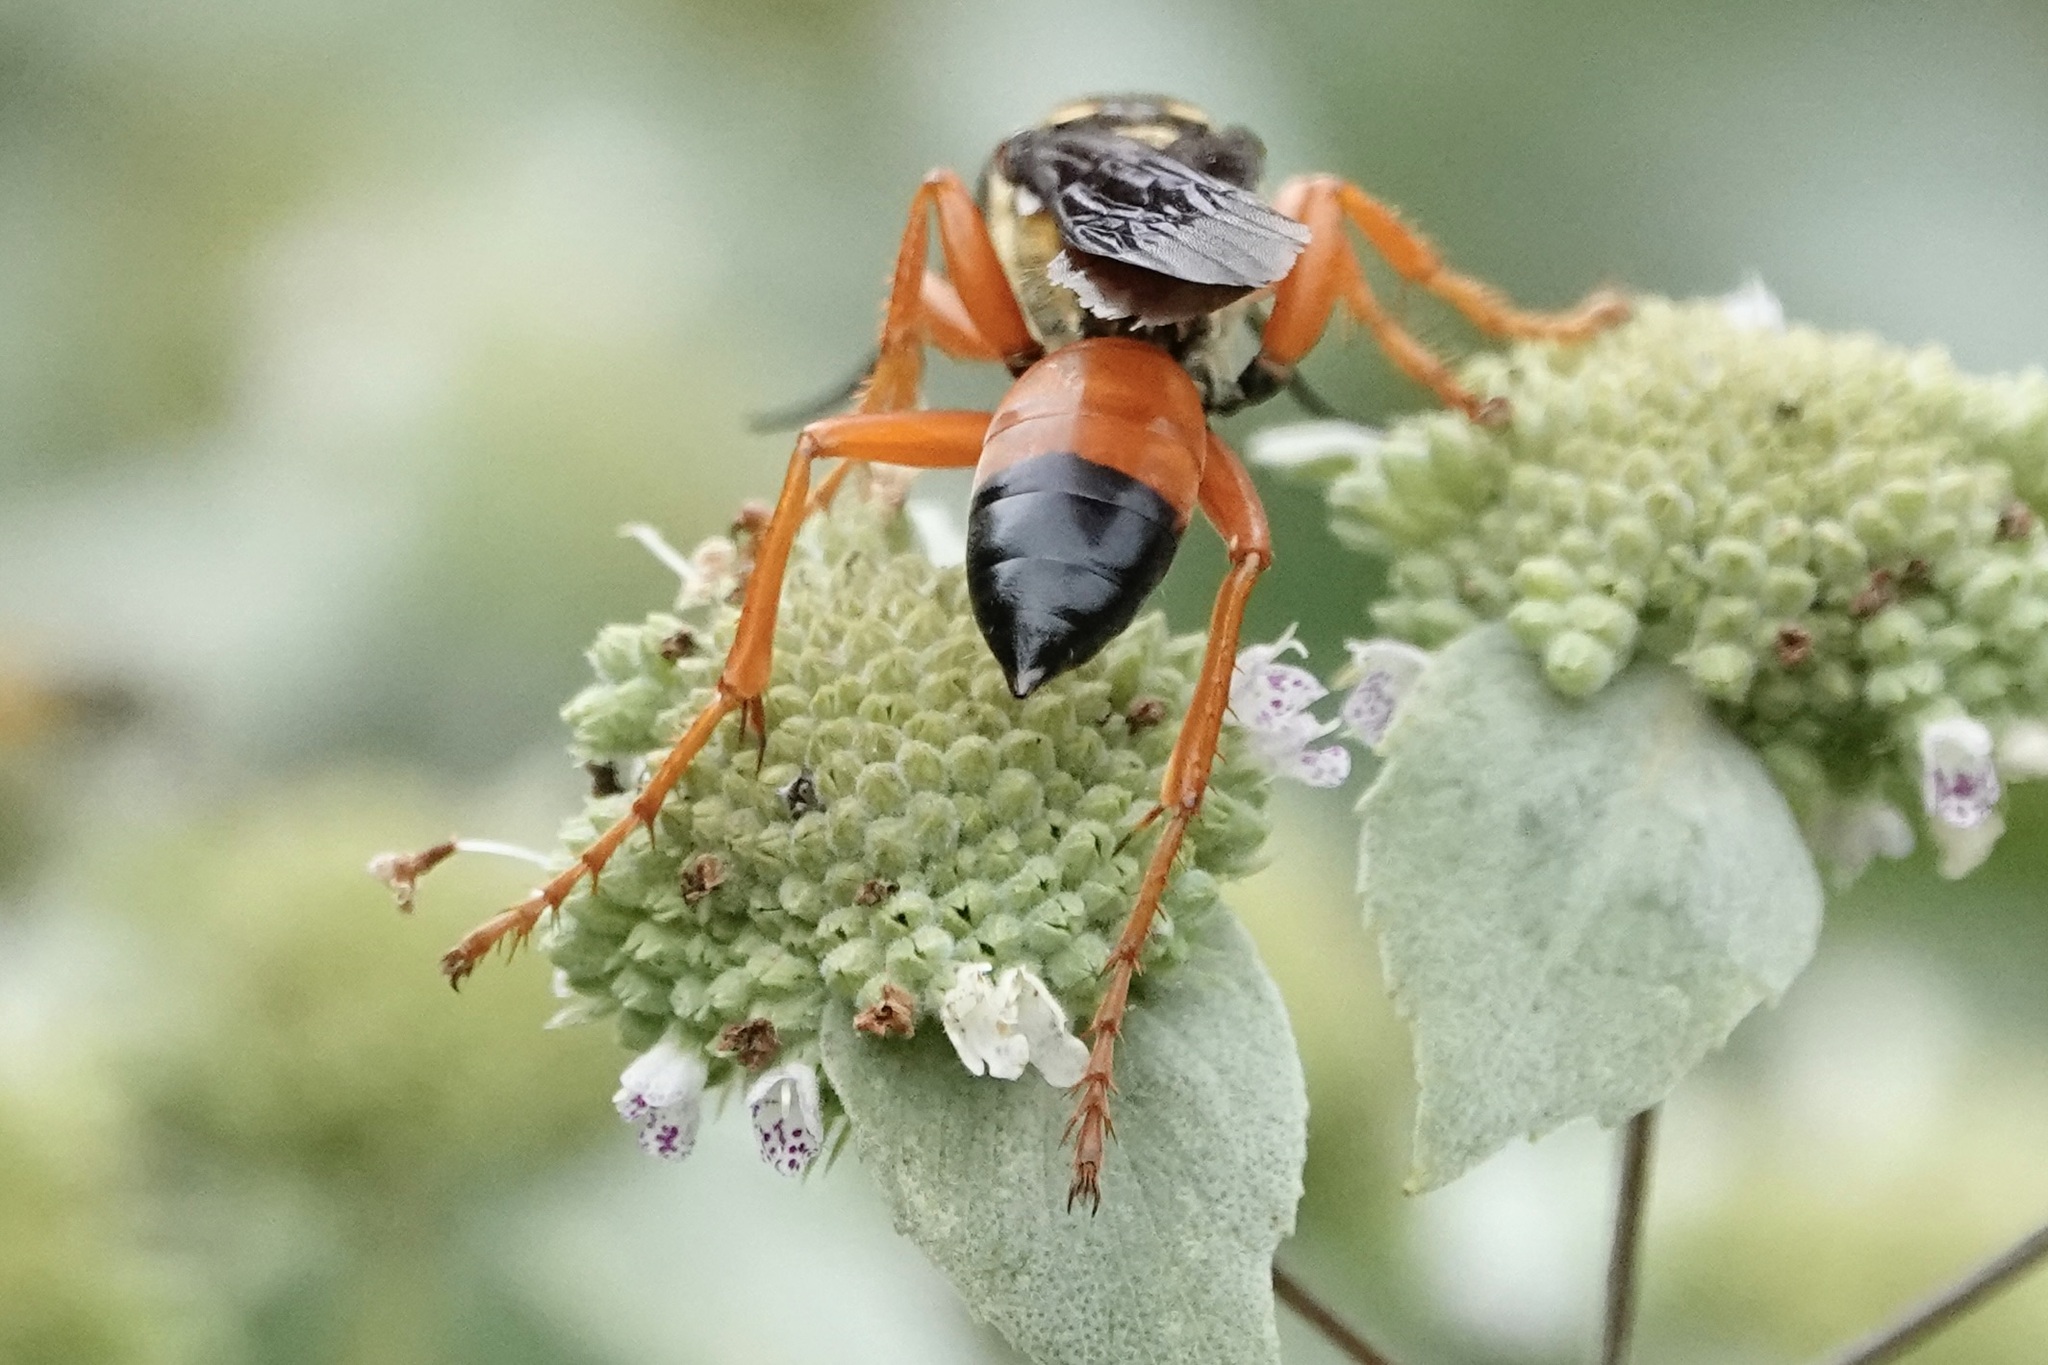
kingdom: Animalia
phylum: Arthropoda
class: Insecta
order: Hymenoptera
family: Sphecidae
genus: Sphex
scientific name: Sphex ichneumoneus
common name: Great golden digger wasp
